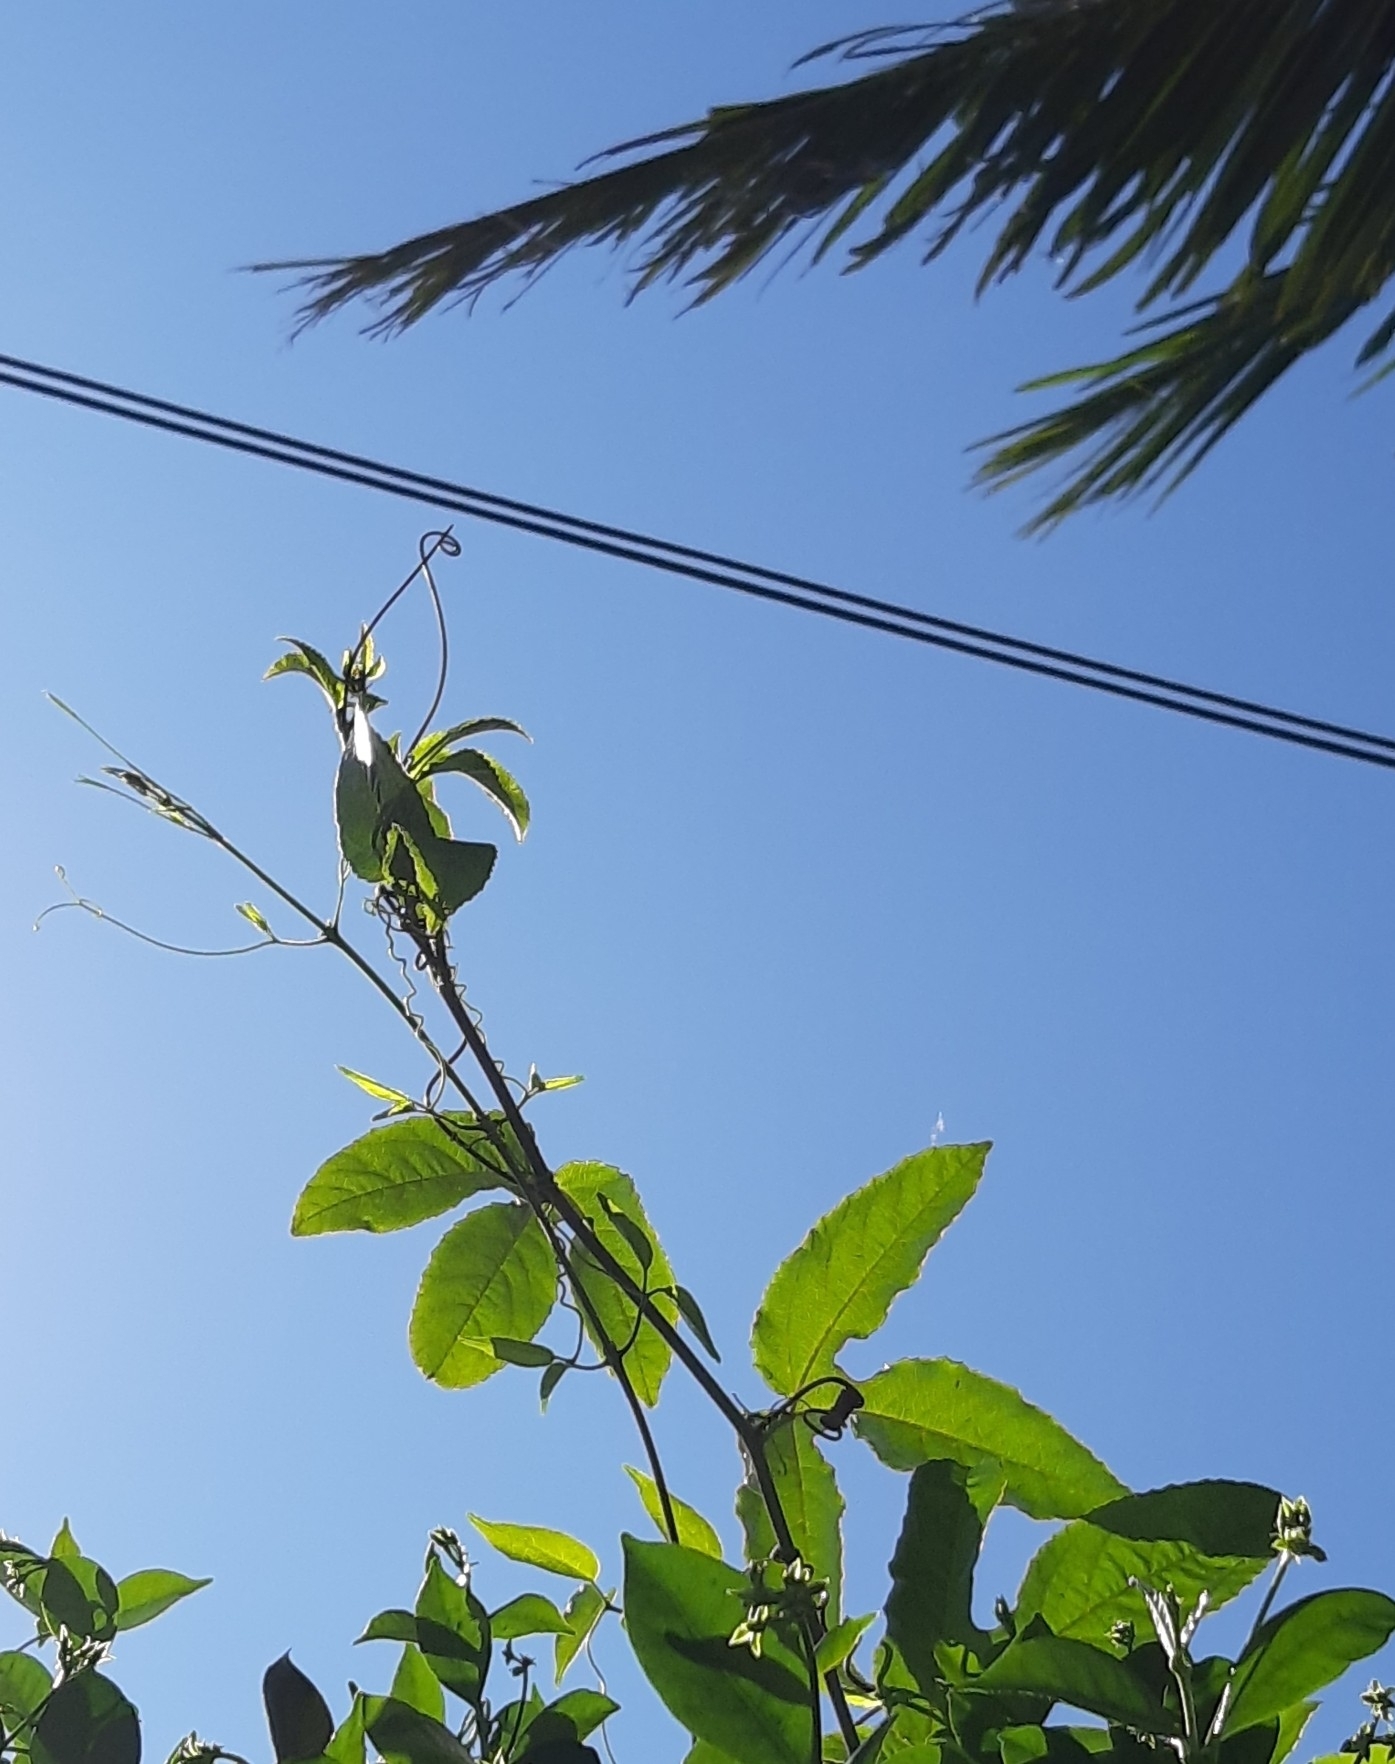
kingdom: Plantae
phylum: Tracheophyta
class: Magnoliopsida
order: Malpighiales
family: Passifloraceae
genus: Passiflora
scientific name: Passiflora edulis
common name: Purple granadilla
